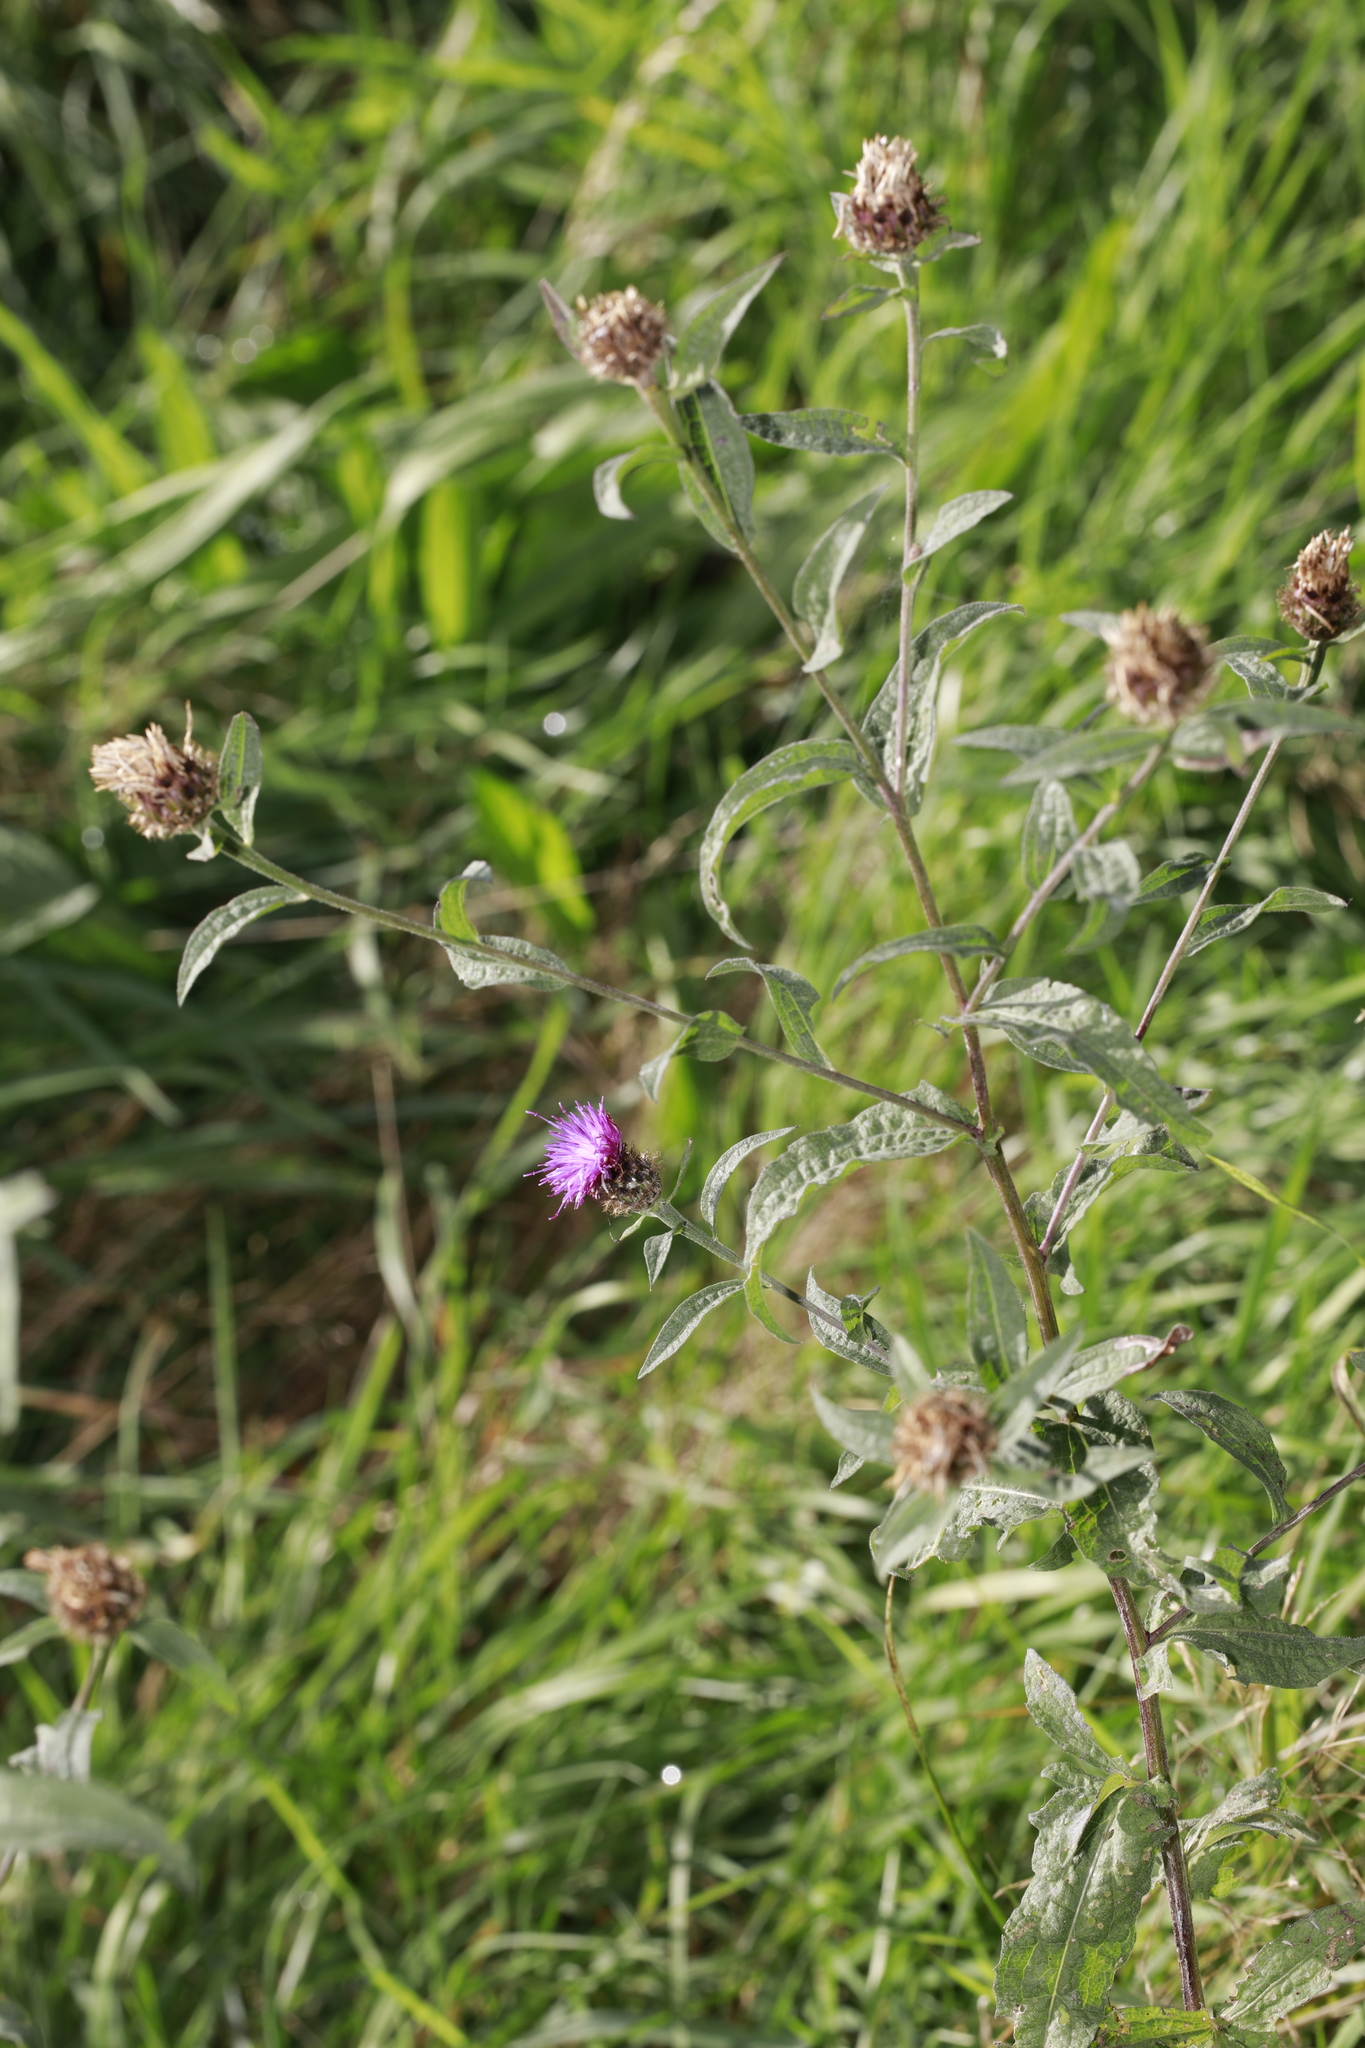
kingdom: Plantae
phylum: Tracheophyta
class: Magnoliopsida
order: Asterales
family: Asteraceae
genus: Centaurea
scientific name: Centaurea nigra
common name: Lesser knapweed
